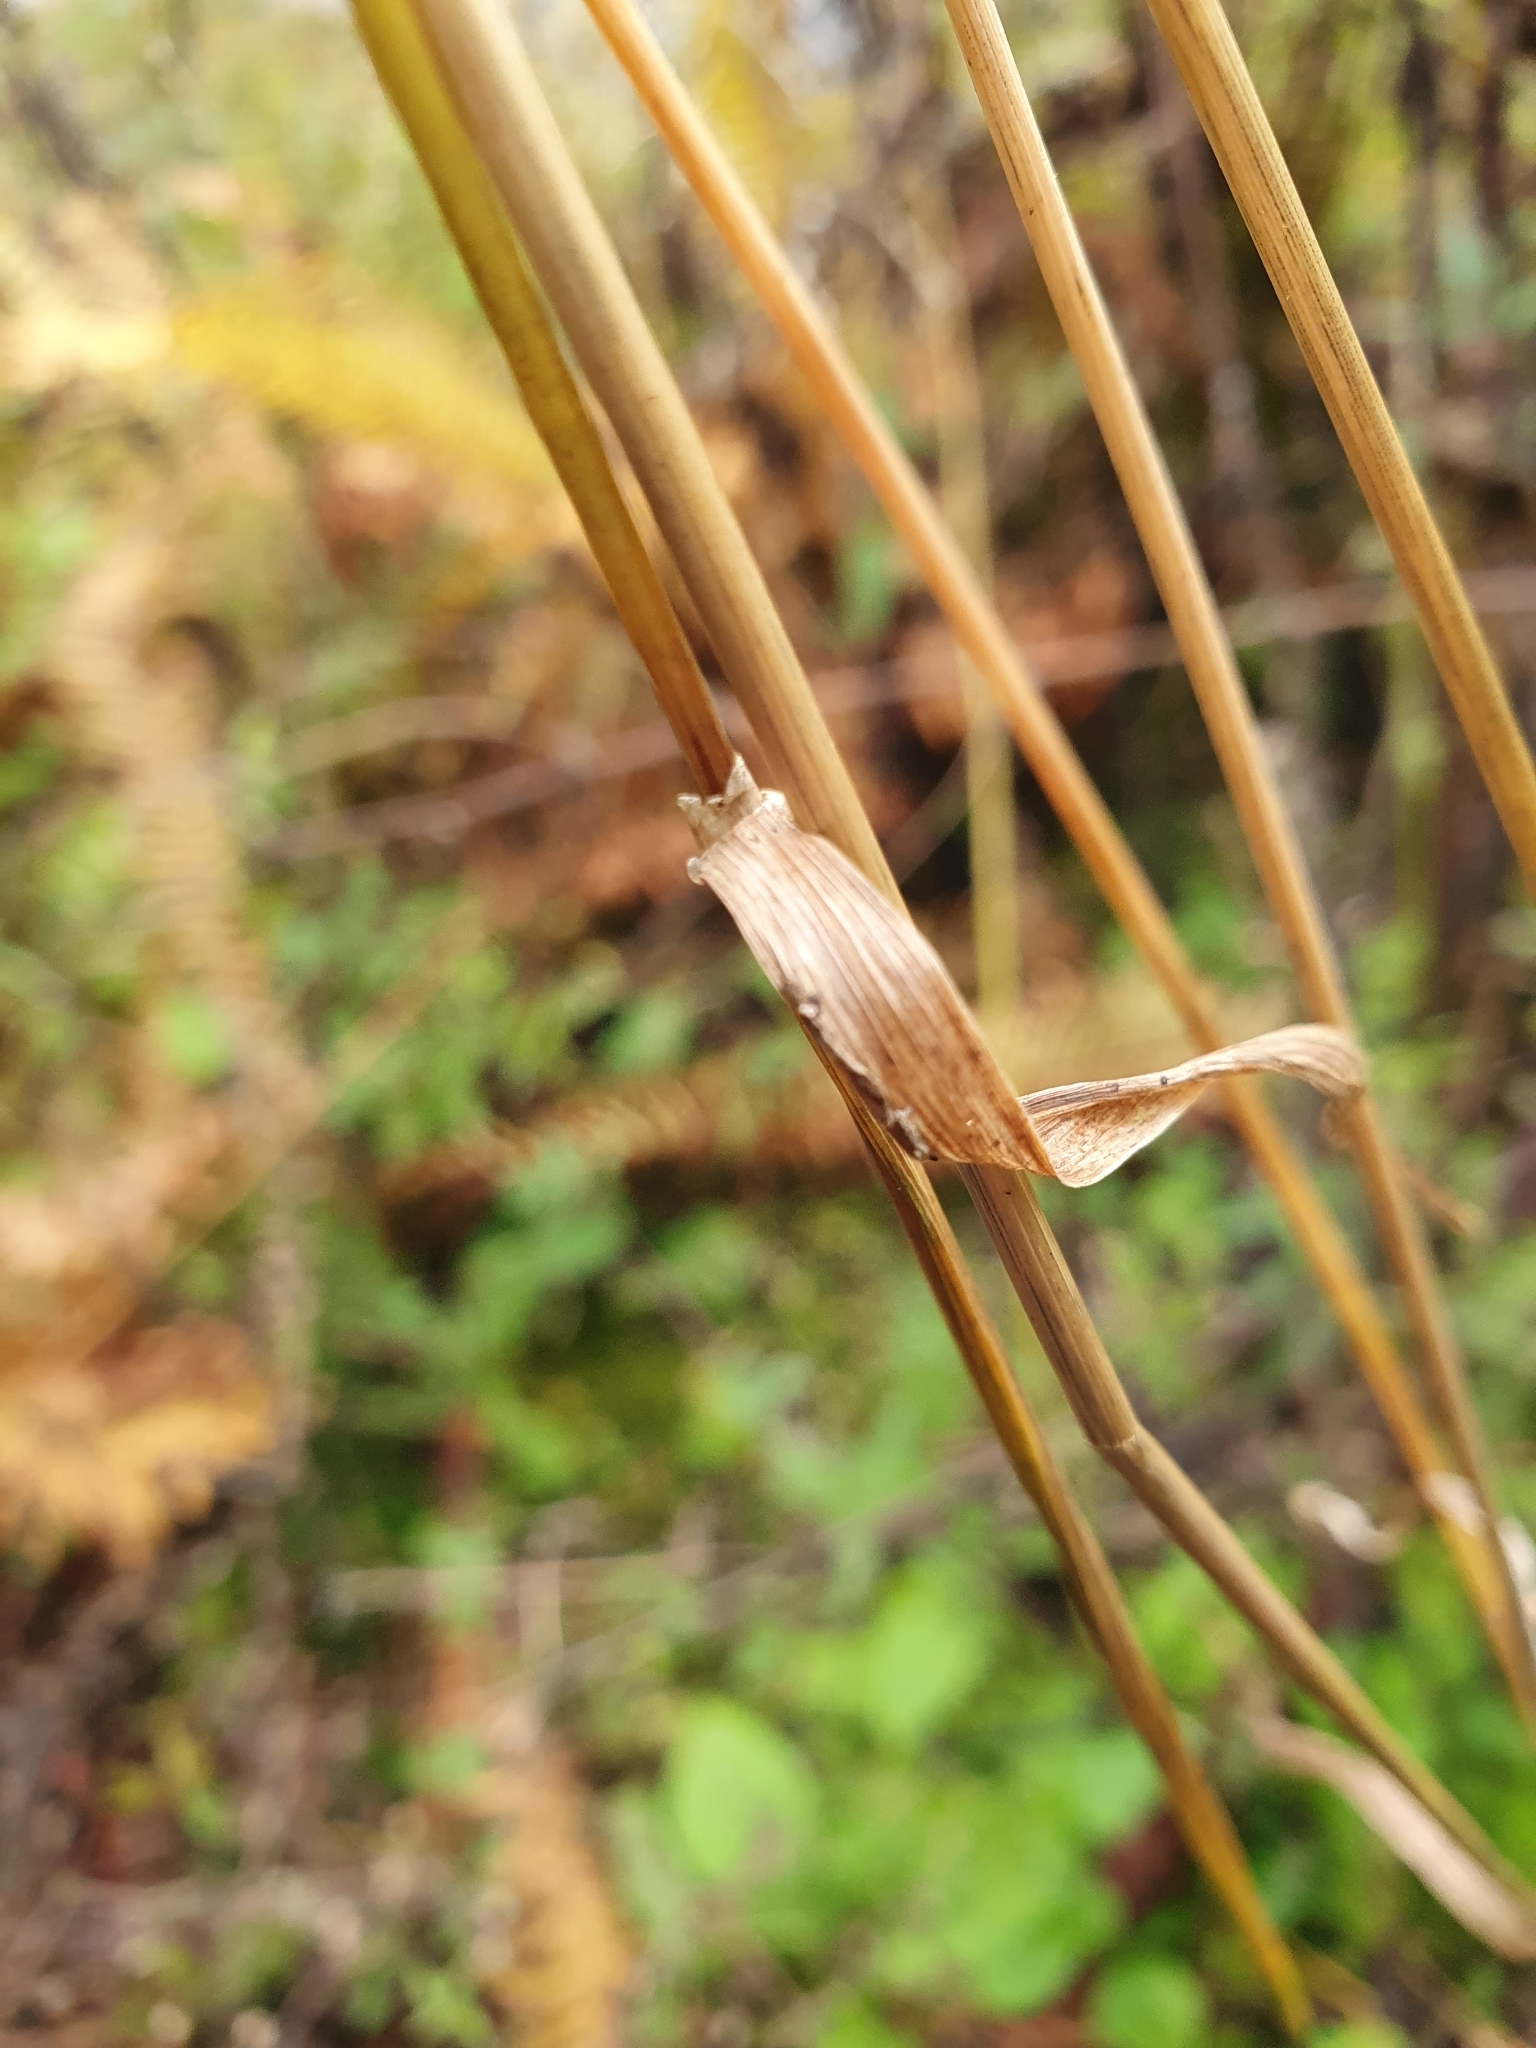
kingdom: Plantae
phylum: Tracheophyta
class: Liliopsida
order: Poales
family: Poaceae
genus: Milium
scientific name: Milium effusum
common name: Wood millet
